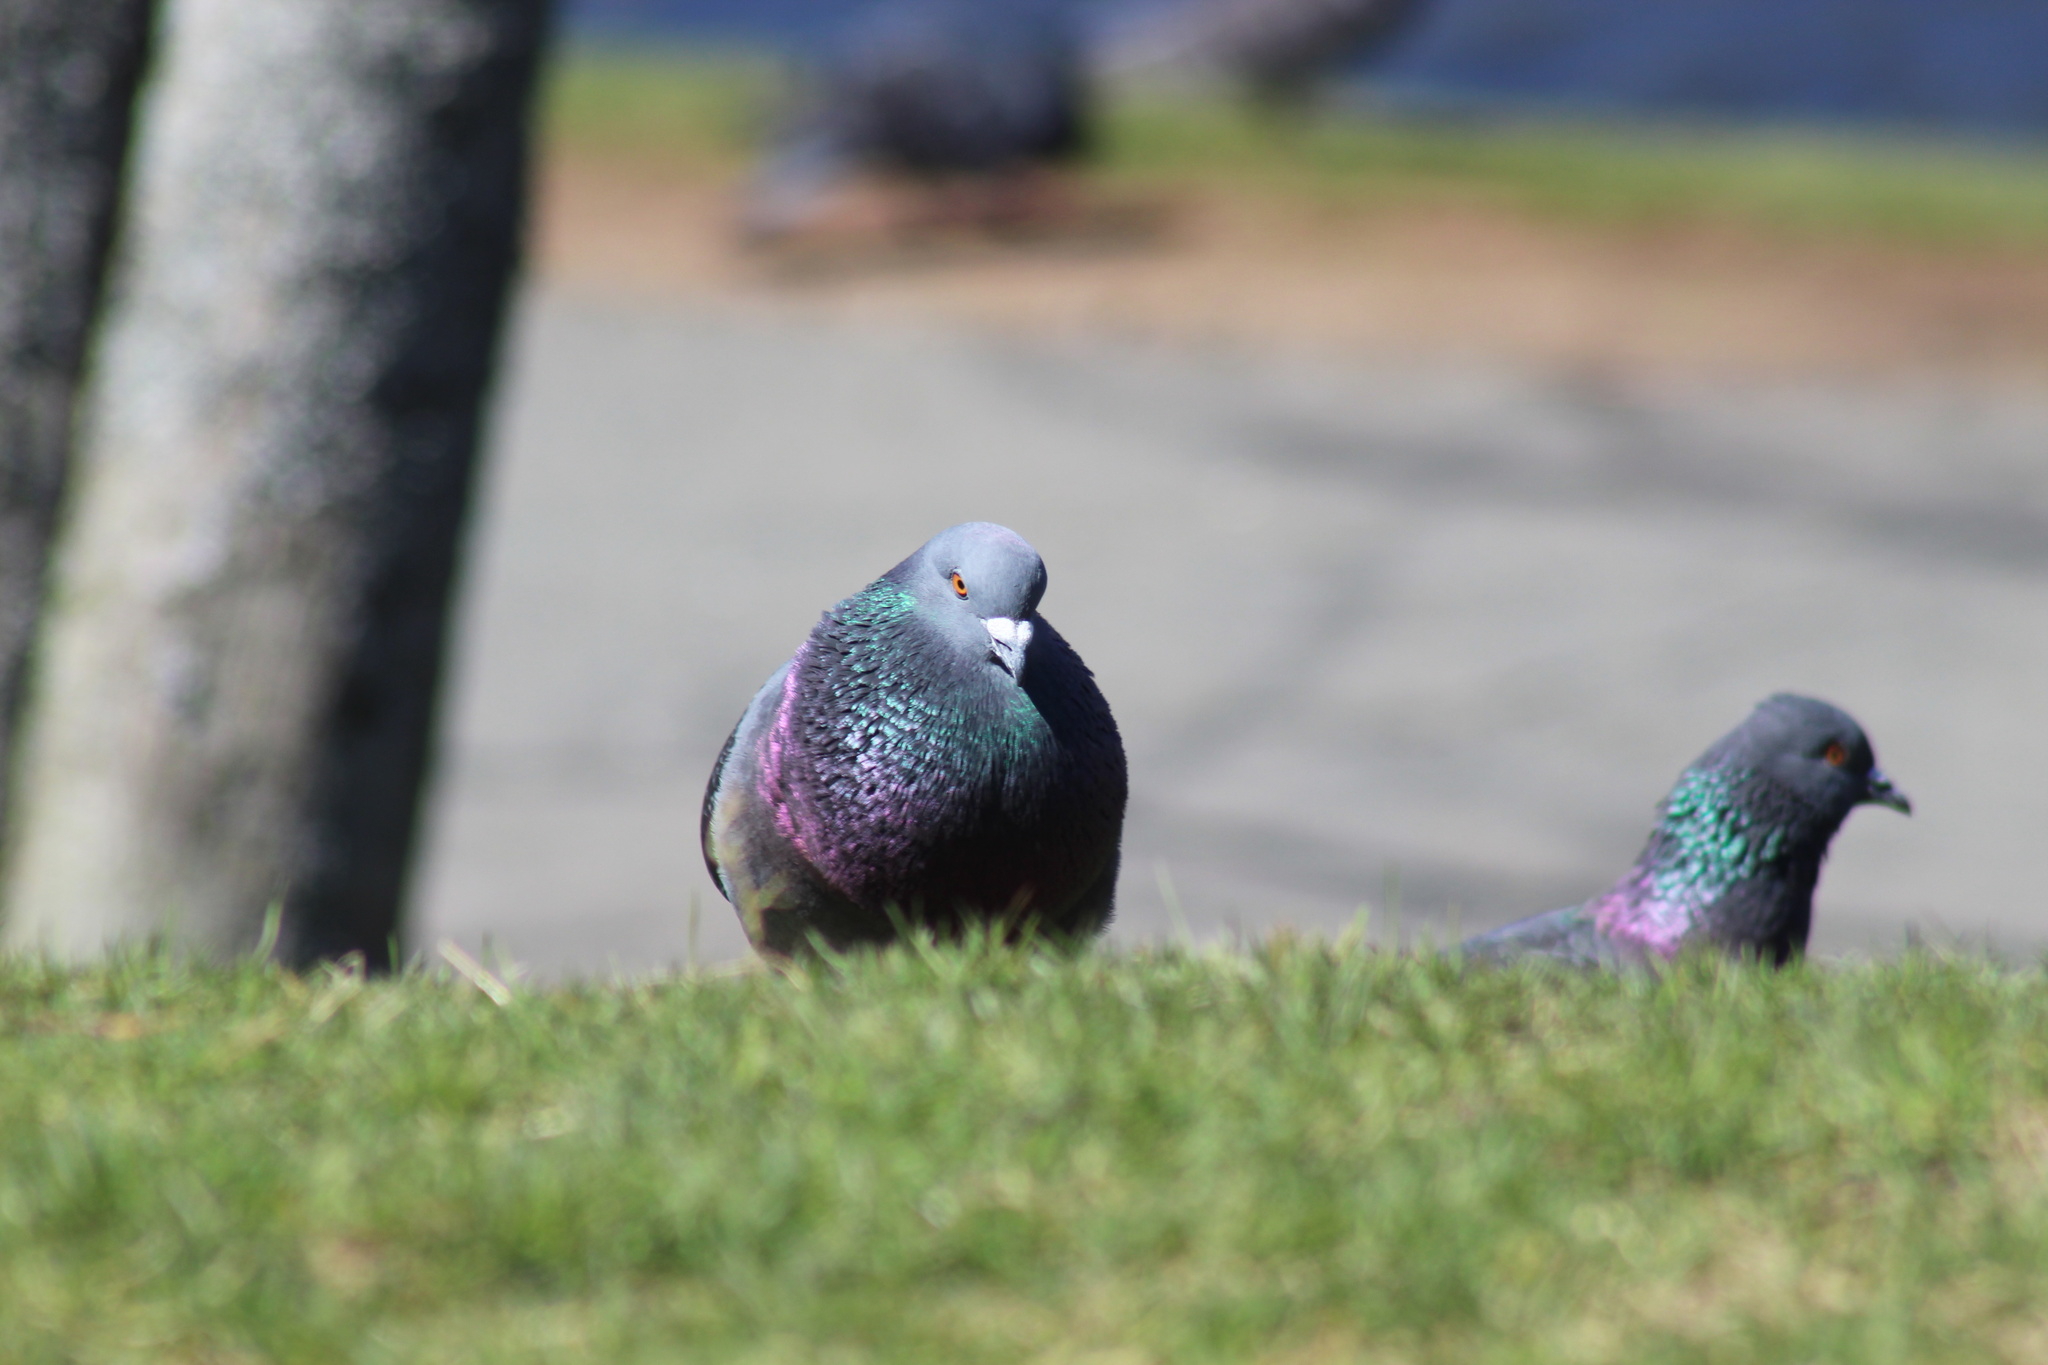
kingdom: Animalia
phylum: Chordata
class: Aves
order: Columbiformes
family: Columbidae
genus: Columba
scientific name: Columba livia
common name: Rock pigeon
